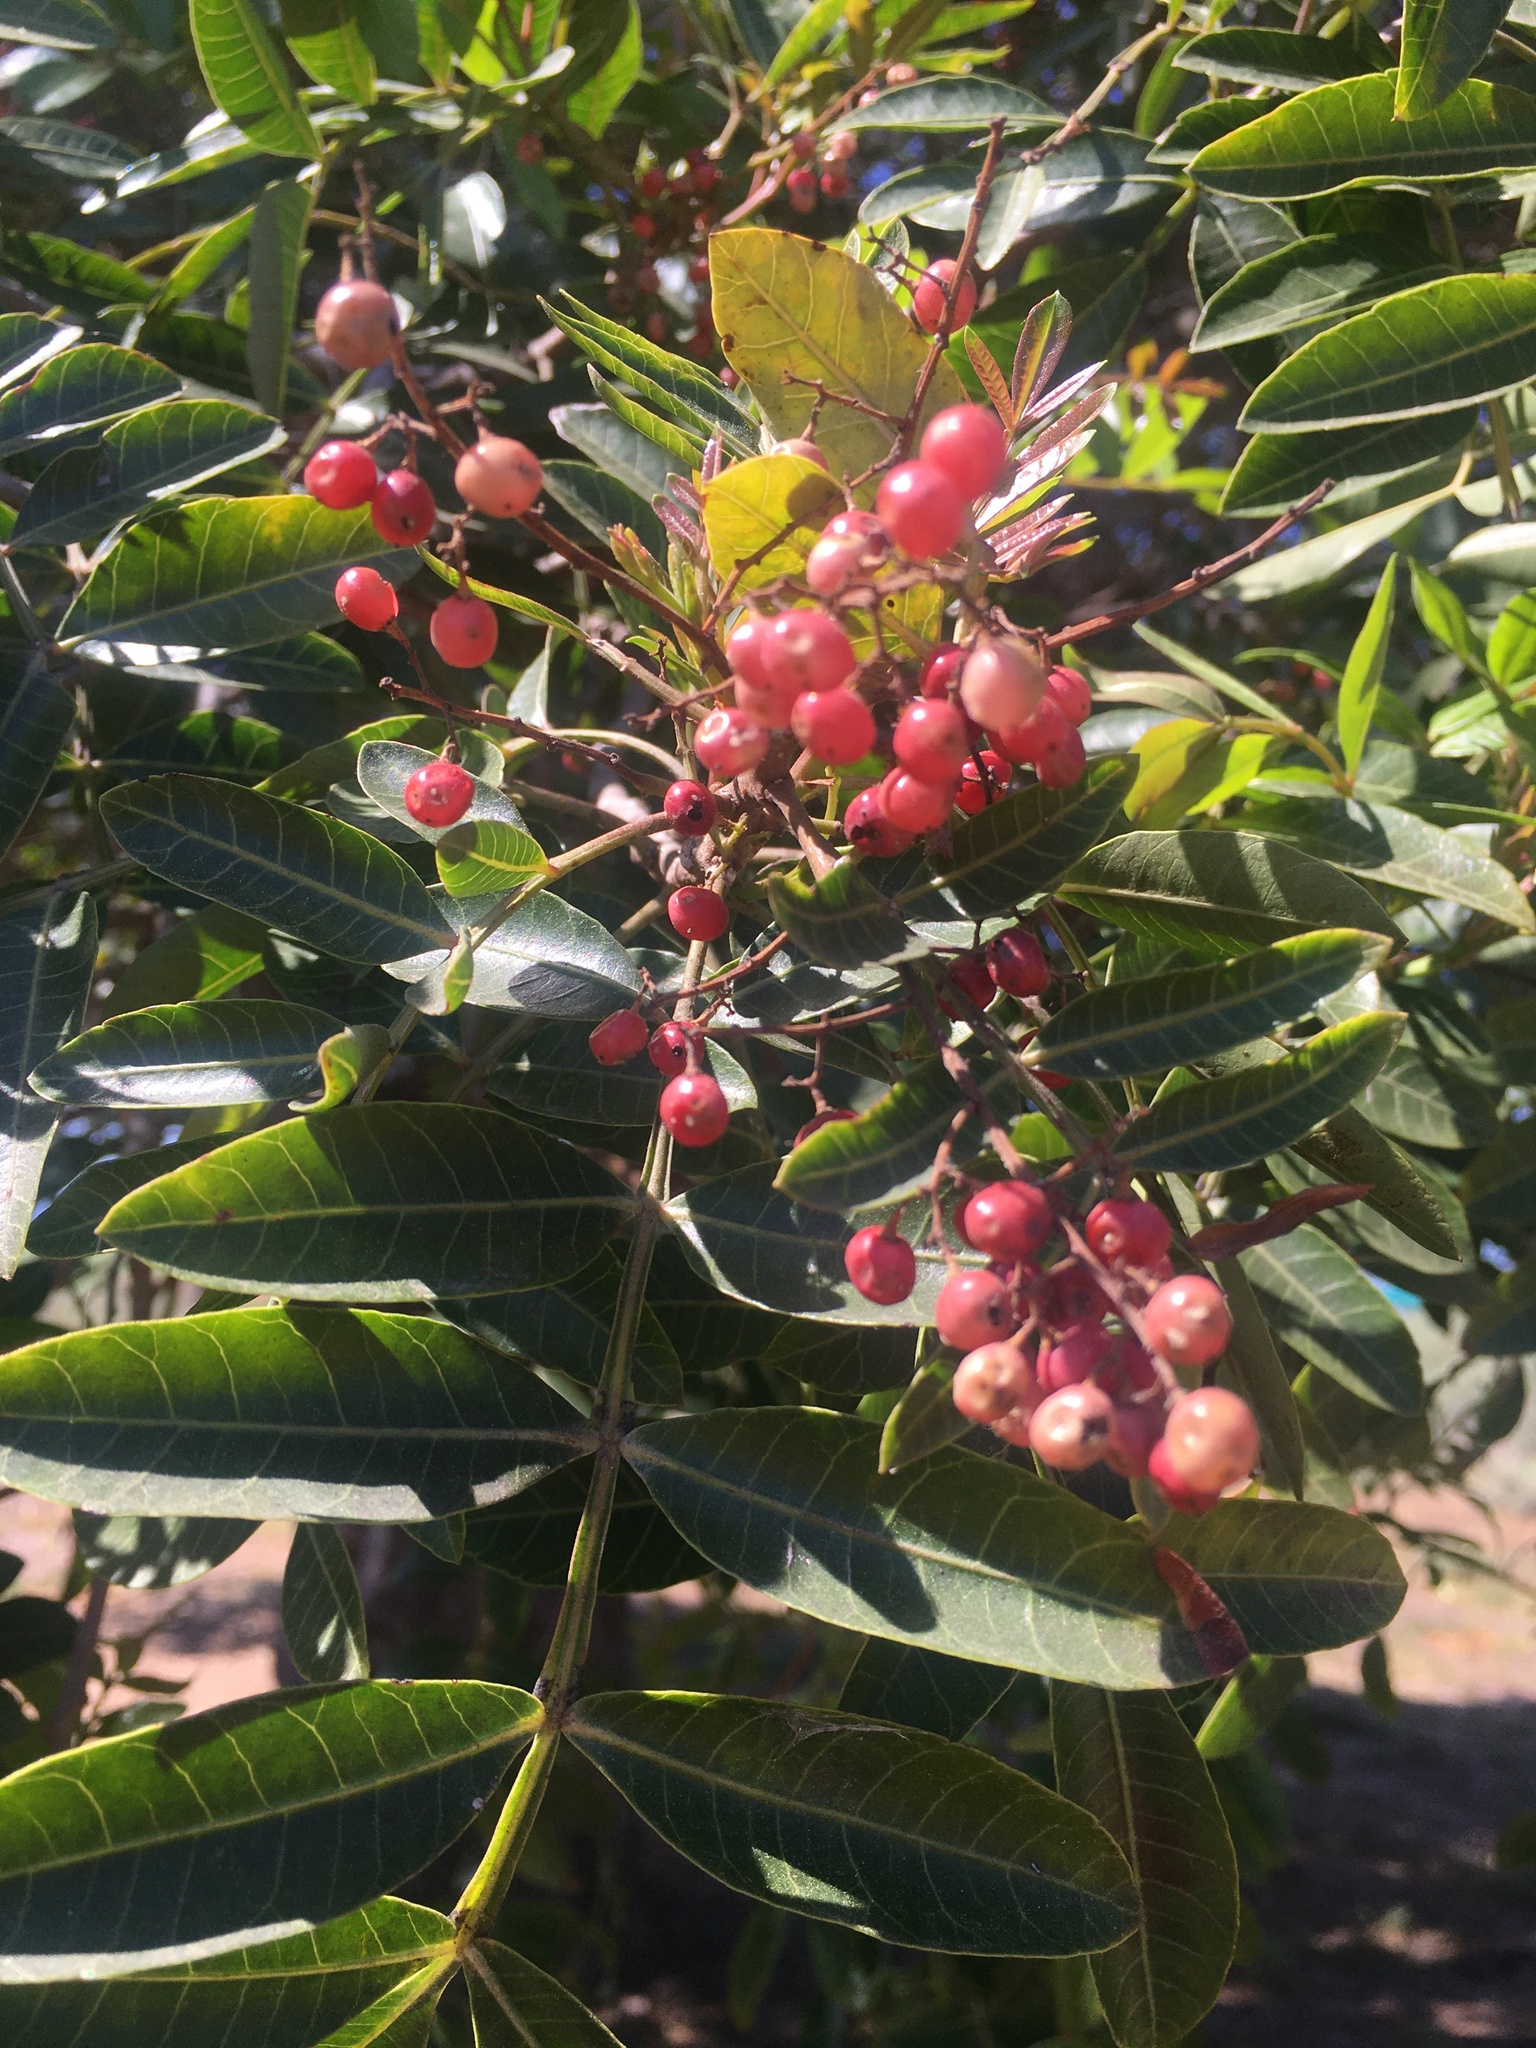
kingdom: Plantae
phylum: Tracheophyta
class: Magnoliopsida
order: Sapindales
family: Anacardiaceae
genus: Schinus
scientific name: Schinus terebinthifolia
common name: Brazilian peppertree
